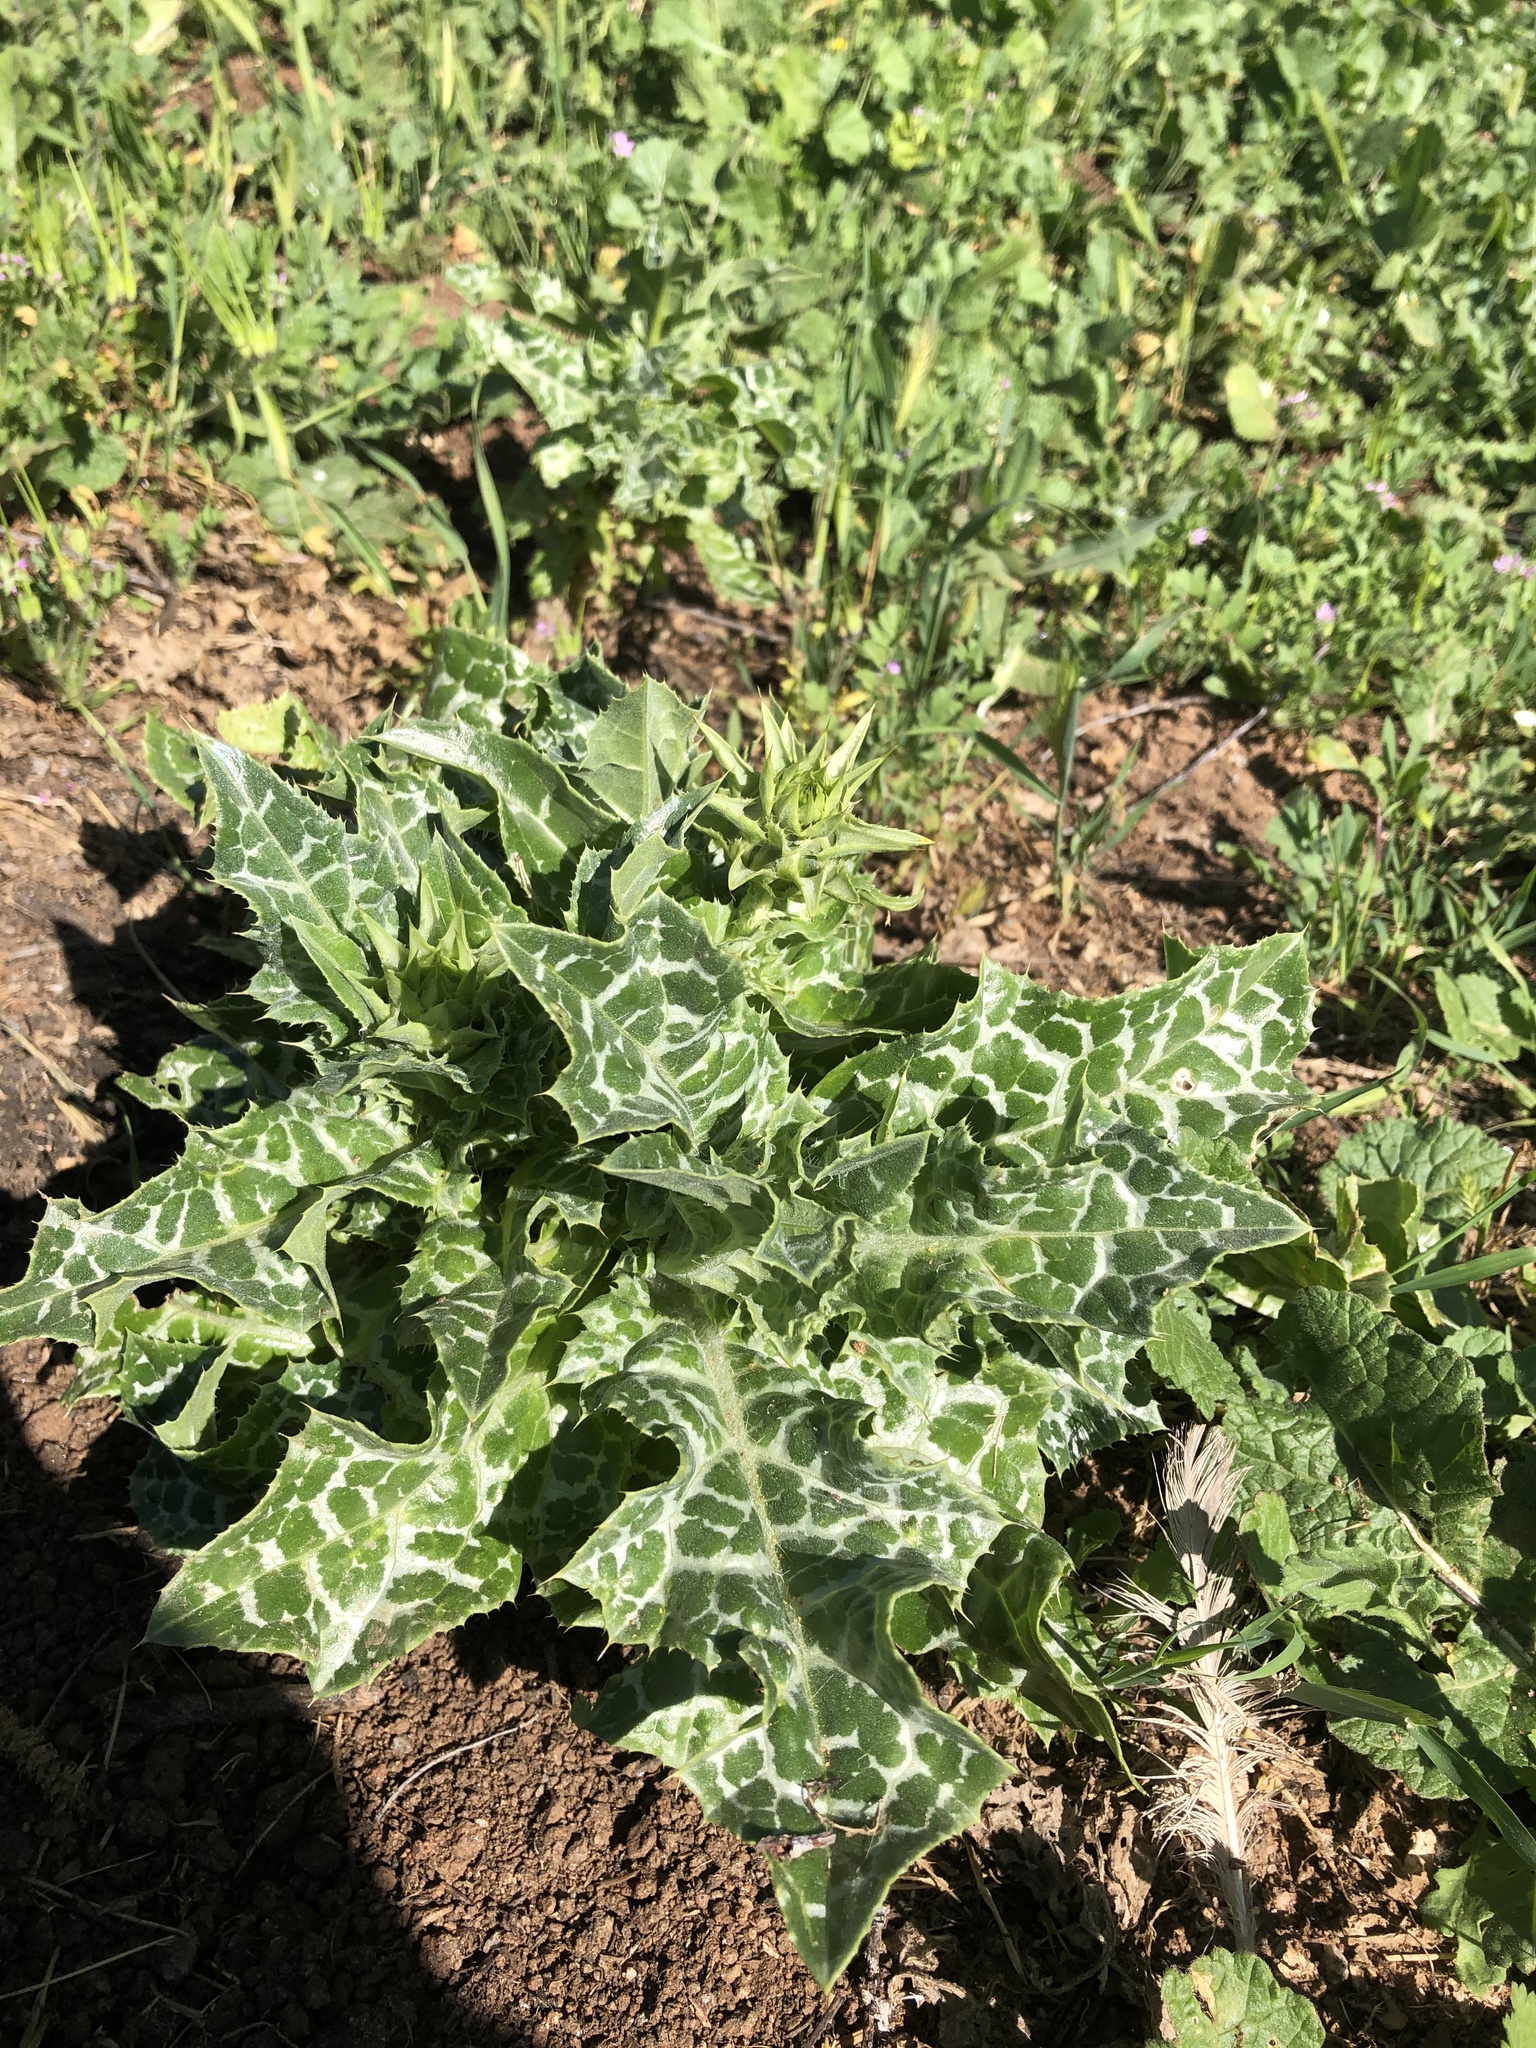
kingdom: Plantae
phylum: Tracheophyta
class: Magnoliopsida
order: Asterales
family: Asteraceae
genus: Silybum
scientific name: Silybum marianum
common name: Milk thistle
